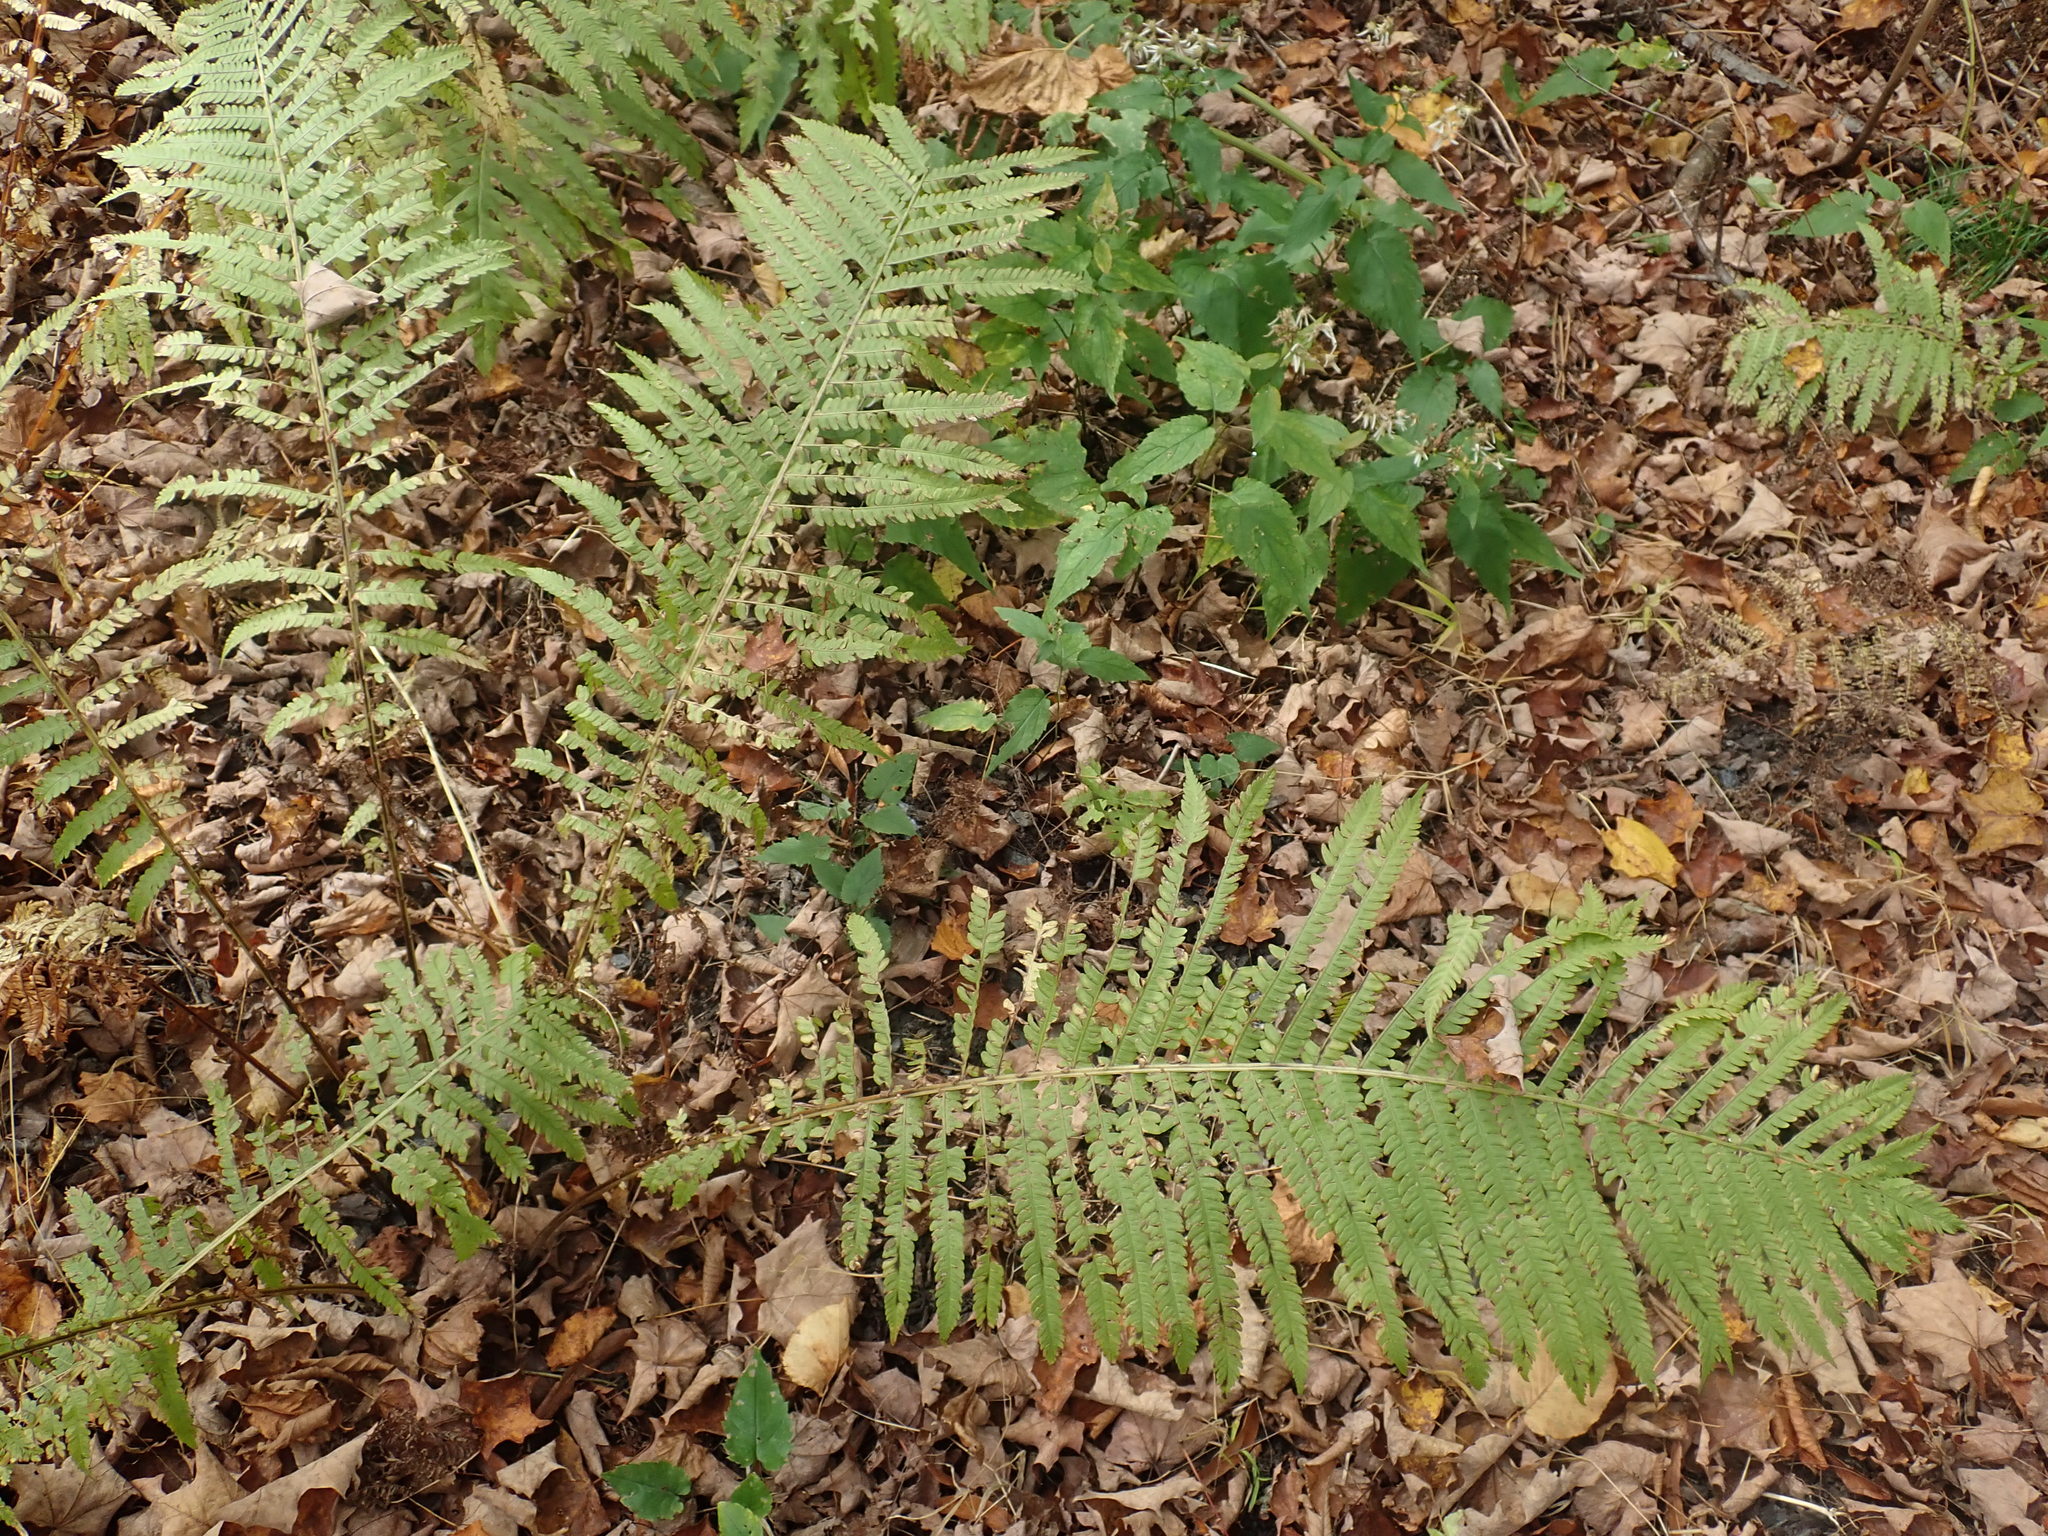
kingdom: Plantae
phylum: Tracheophyta
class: Polypodiopsida
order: Polypodiales
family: Onocleaceae
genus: Matteuccia
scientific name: Matteuccia struthiopteris
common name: Ostrich fern
